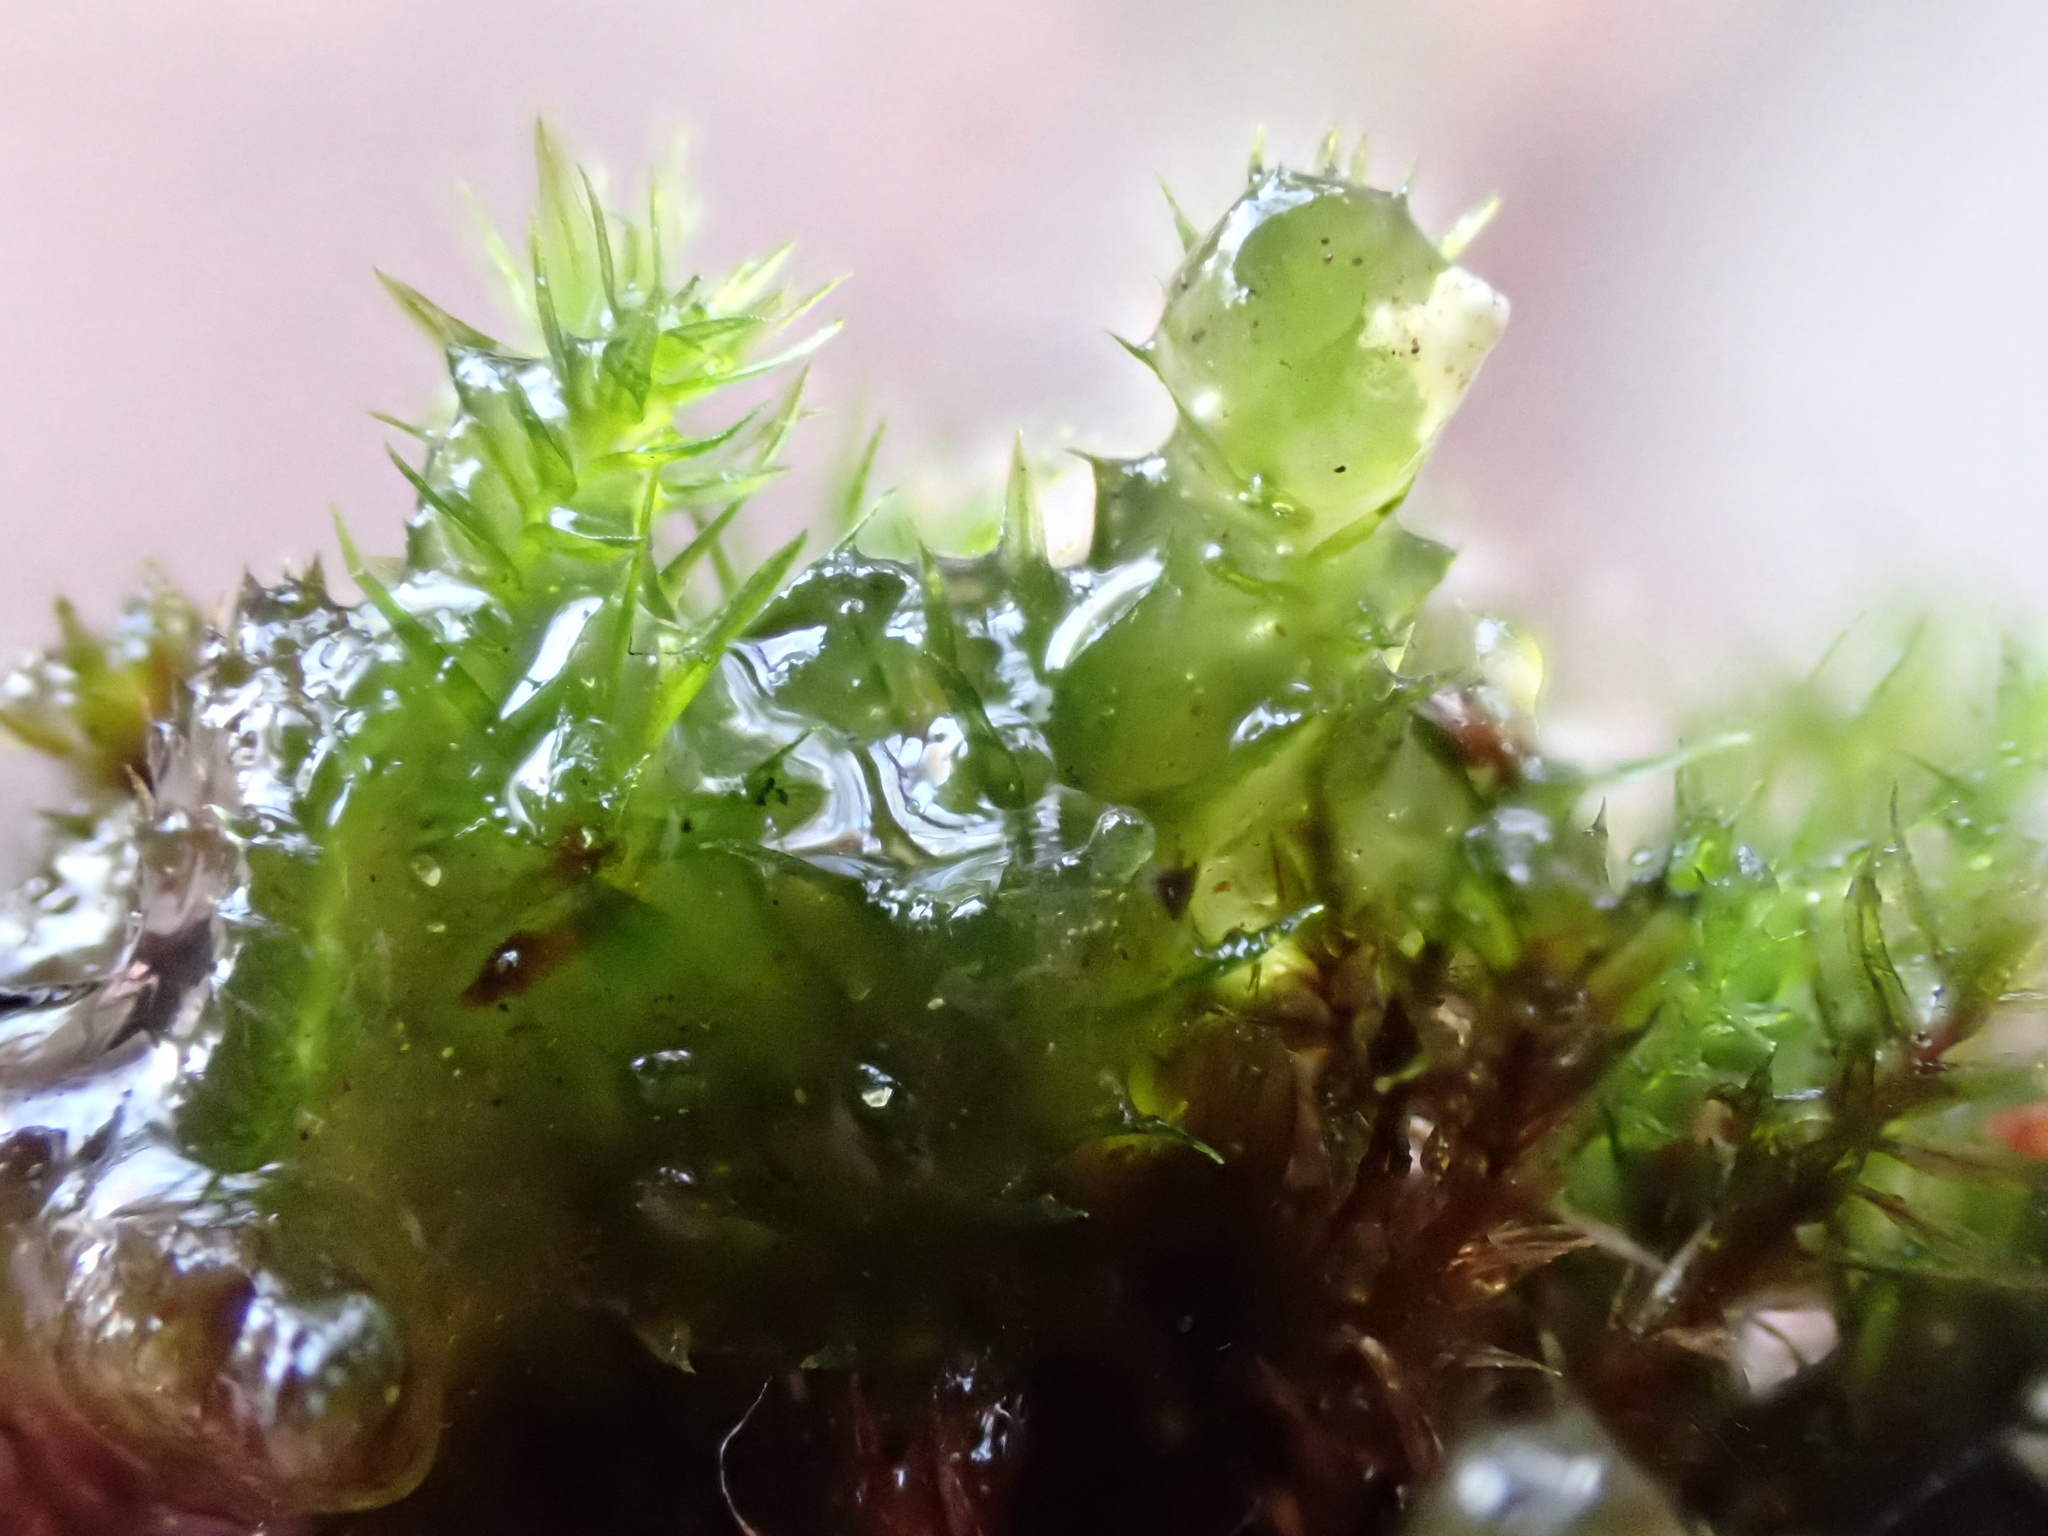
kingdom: Plantae
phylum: Bryophyta
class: Bryopsida
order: Bryales
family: Mniaceae
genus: Pohlia
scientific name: Pohlia nutans
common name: Nodding thread-moss
